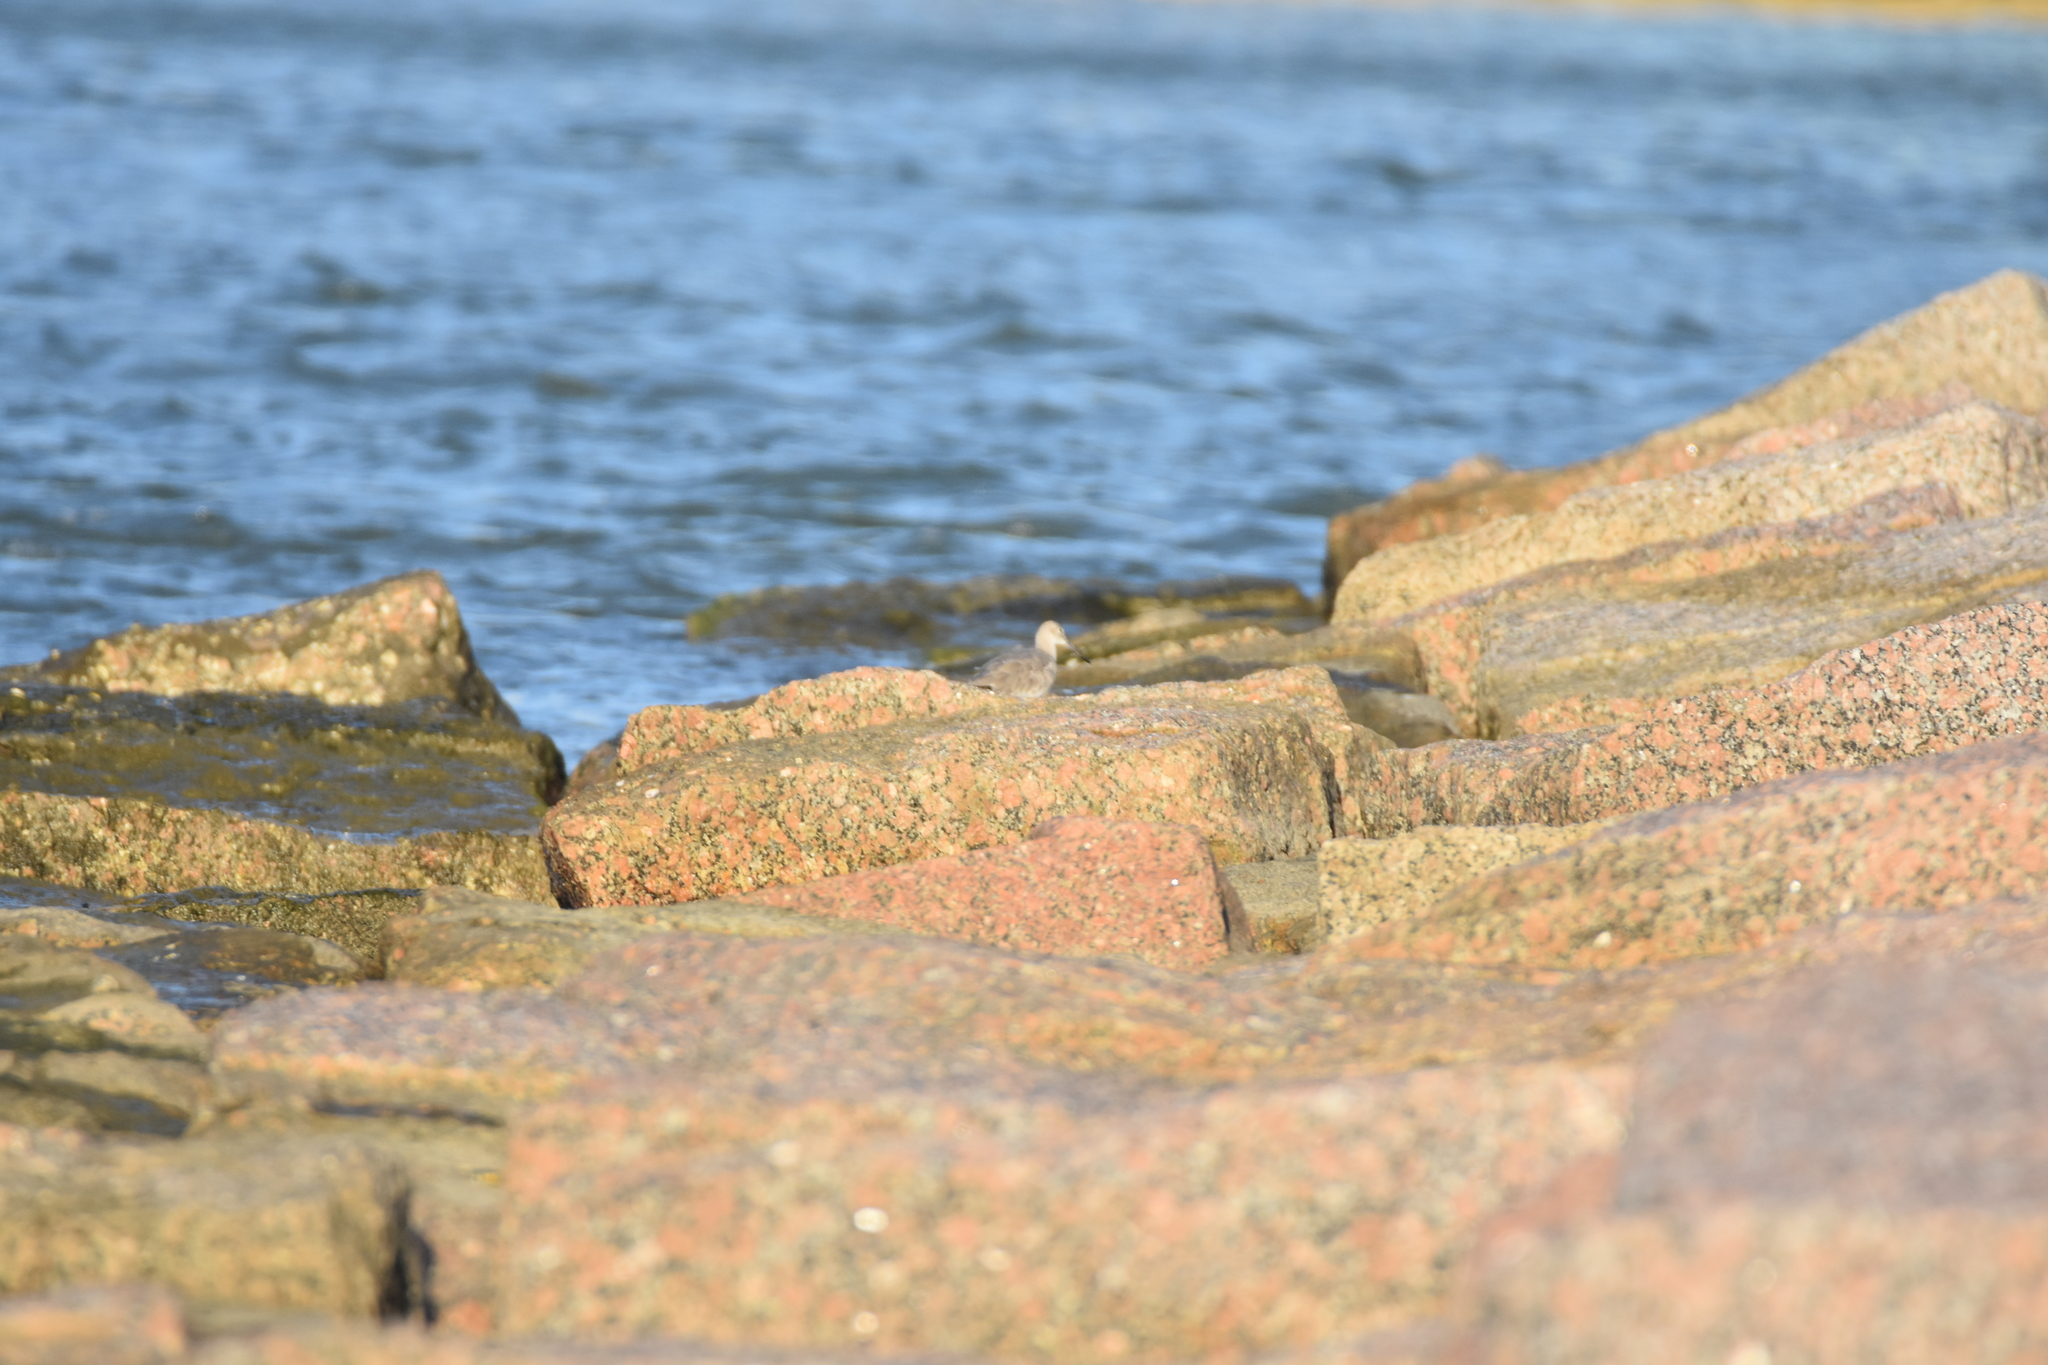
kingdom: Animalia
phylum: Chordata
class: Aves
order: Charadriiformes
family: Scolopacidae
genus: Tringa
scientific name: Tringa semipalmata
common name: Willet
